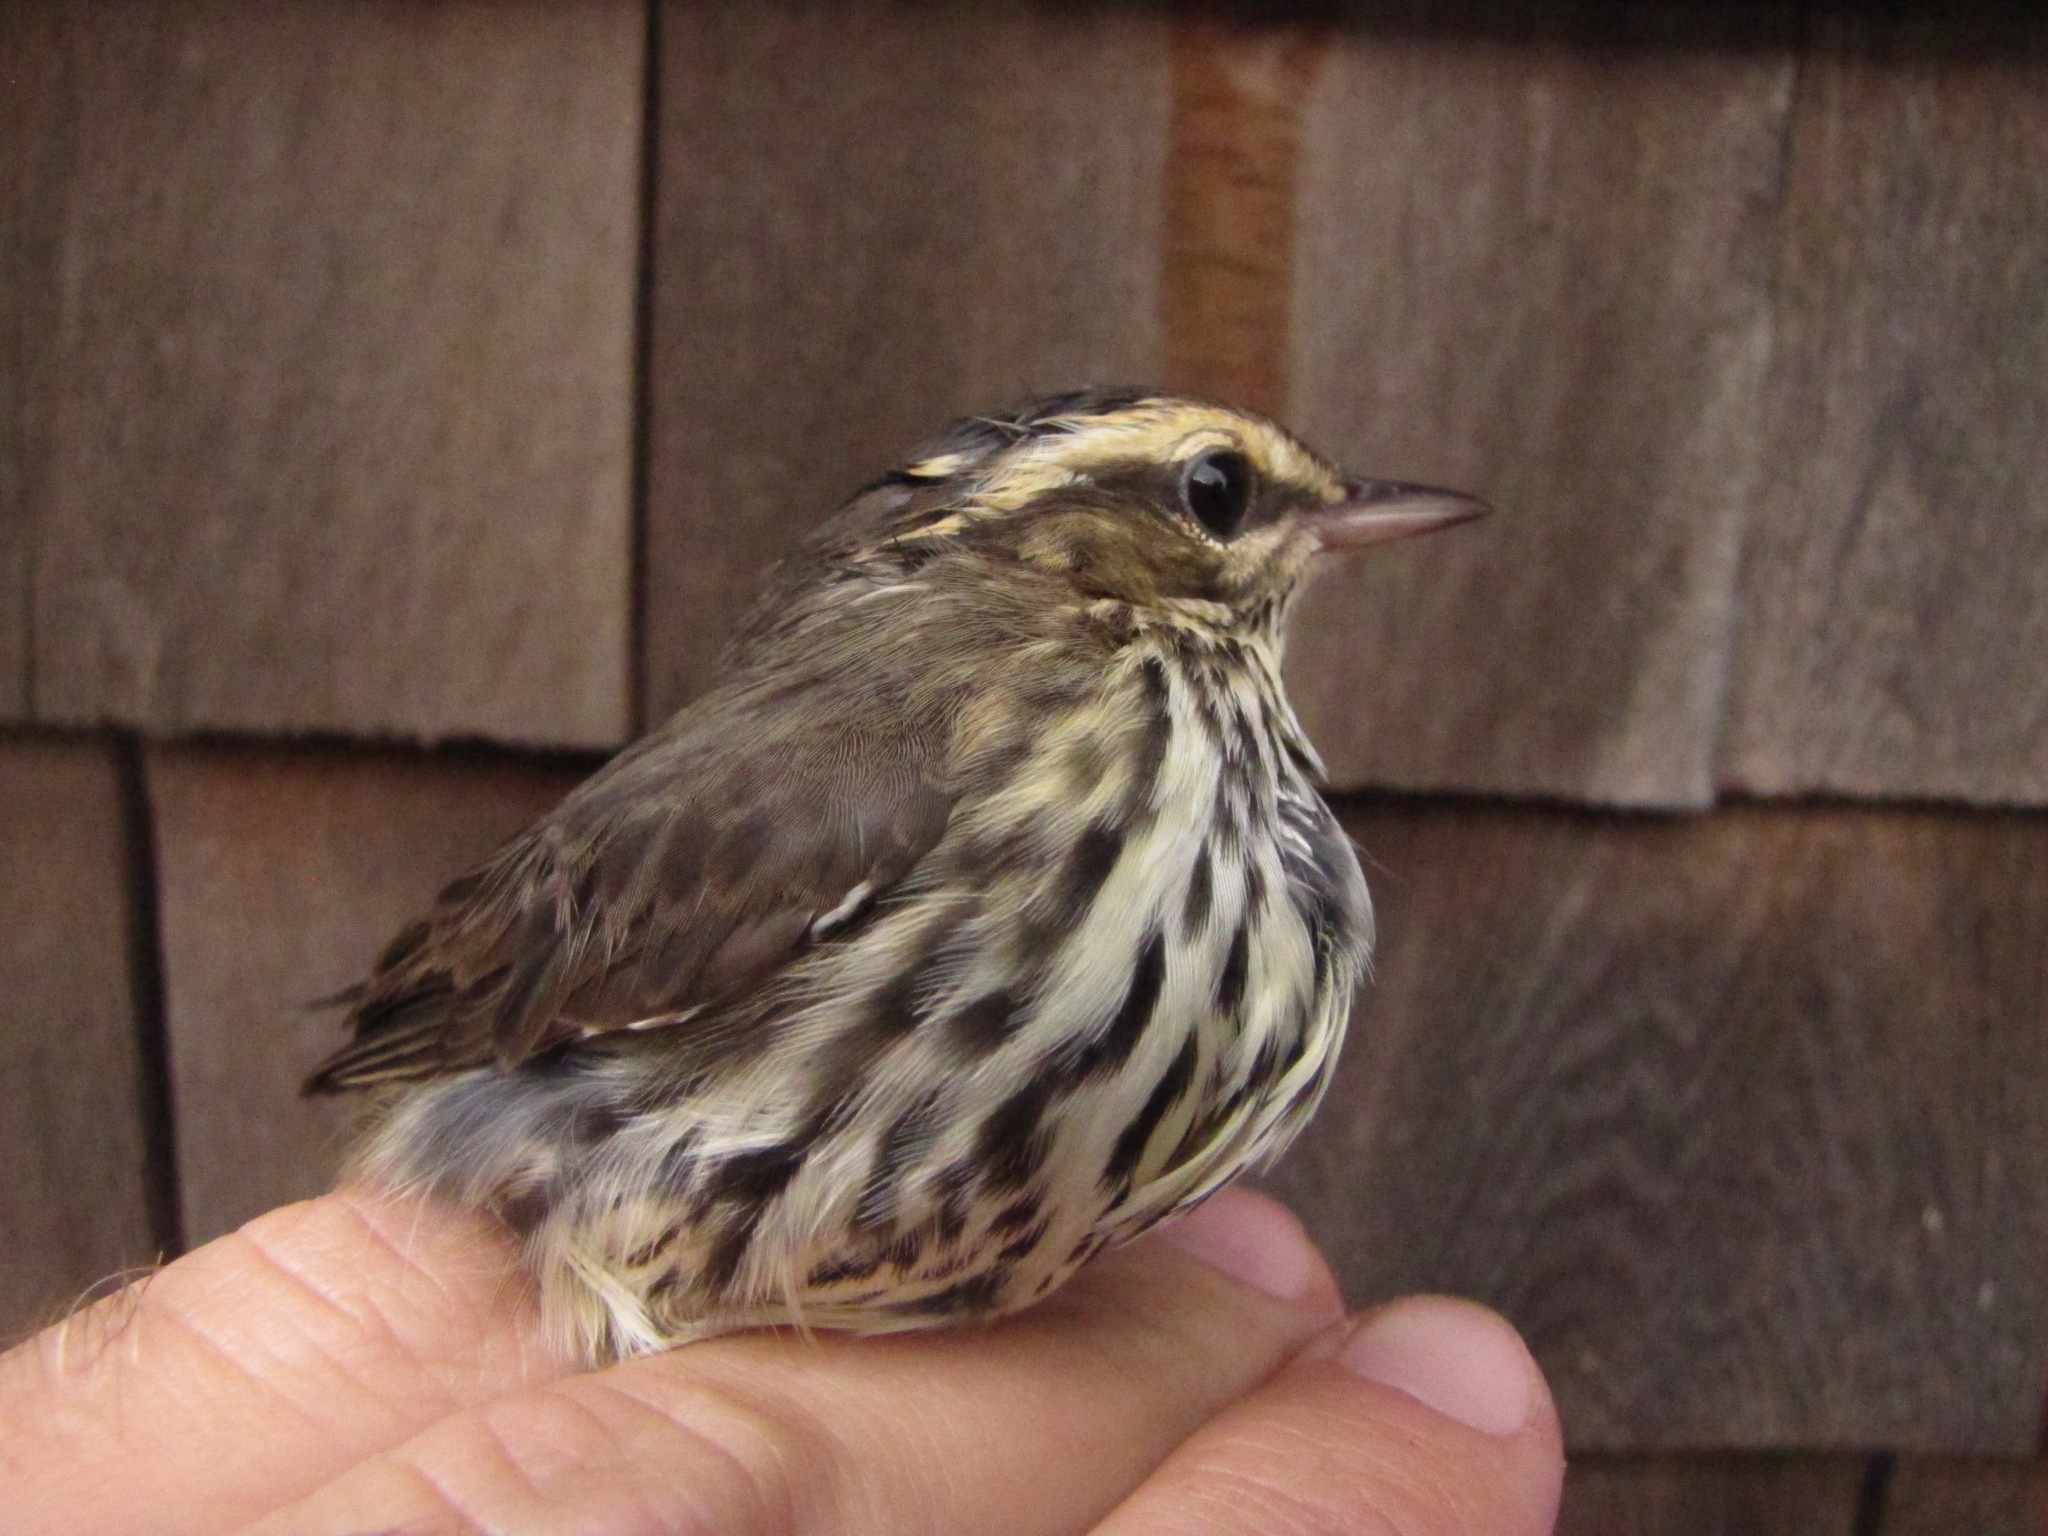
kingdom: Animalia
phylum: Chordata
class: Aves
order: Passeriformes
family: Parulidae
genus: Parkesia
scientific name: Parkesia noveboracensis
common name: Northern waterthrush
